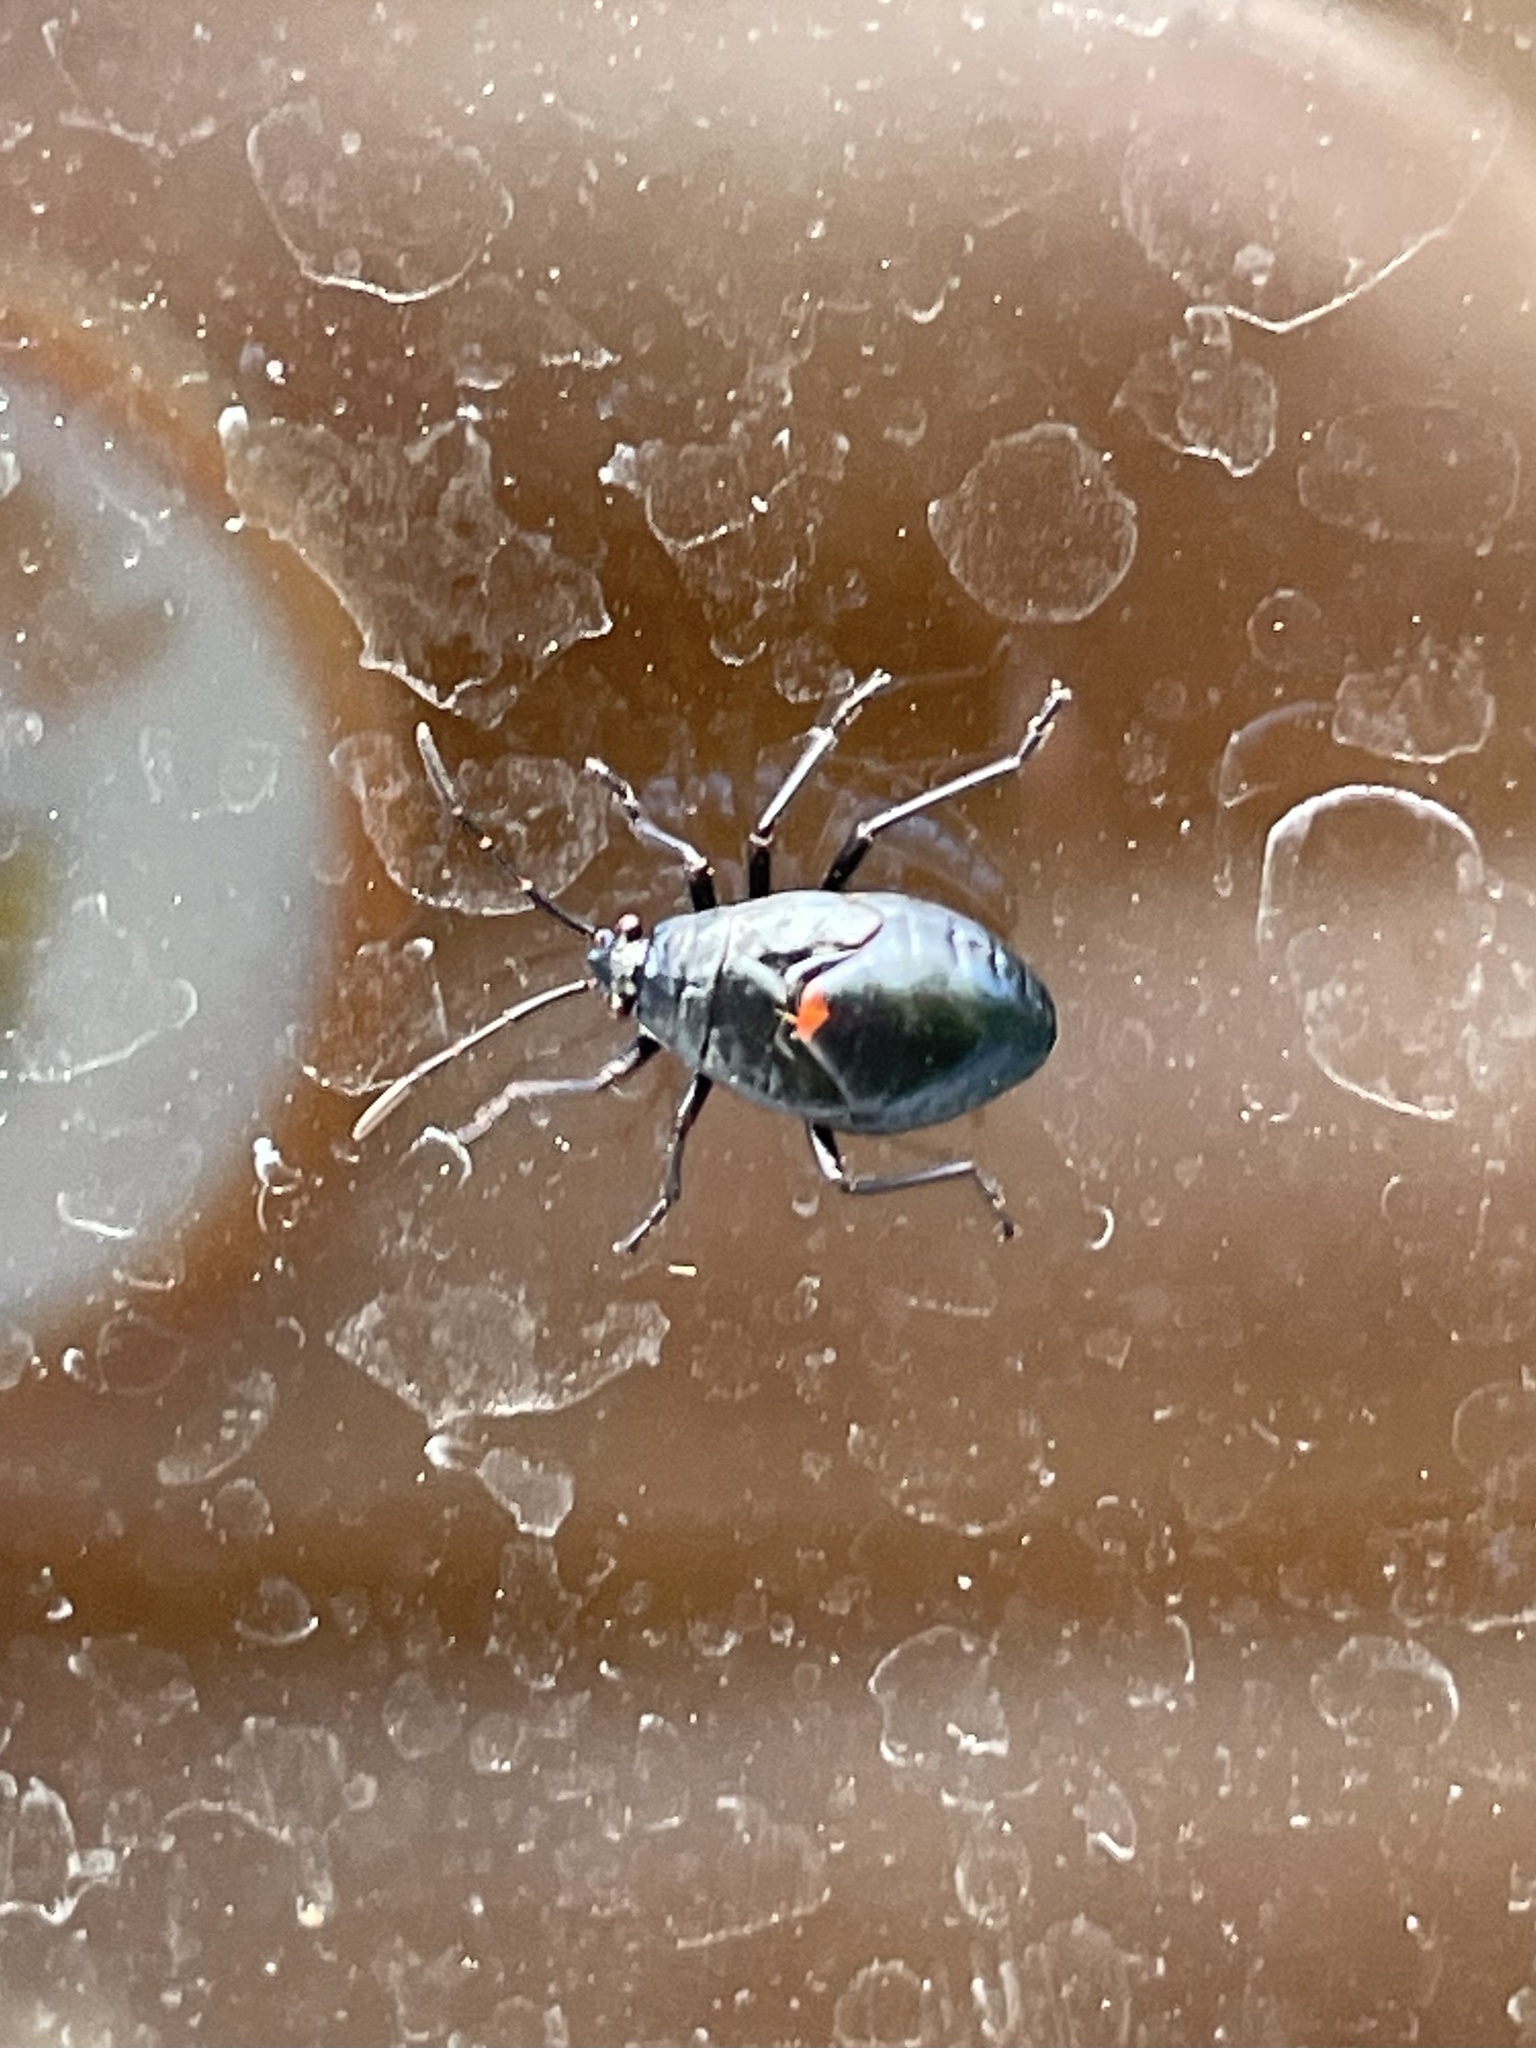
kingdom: Animalia
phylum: Arthropoda
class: Insecta
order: Hemiptera
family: Largidae
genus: Largus
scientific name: Largus succinctus
